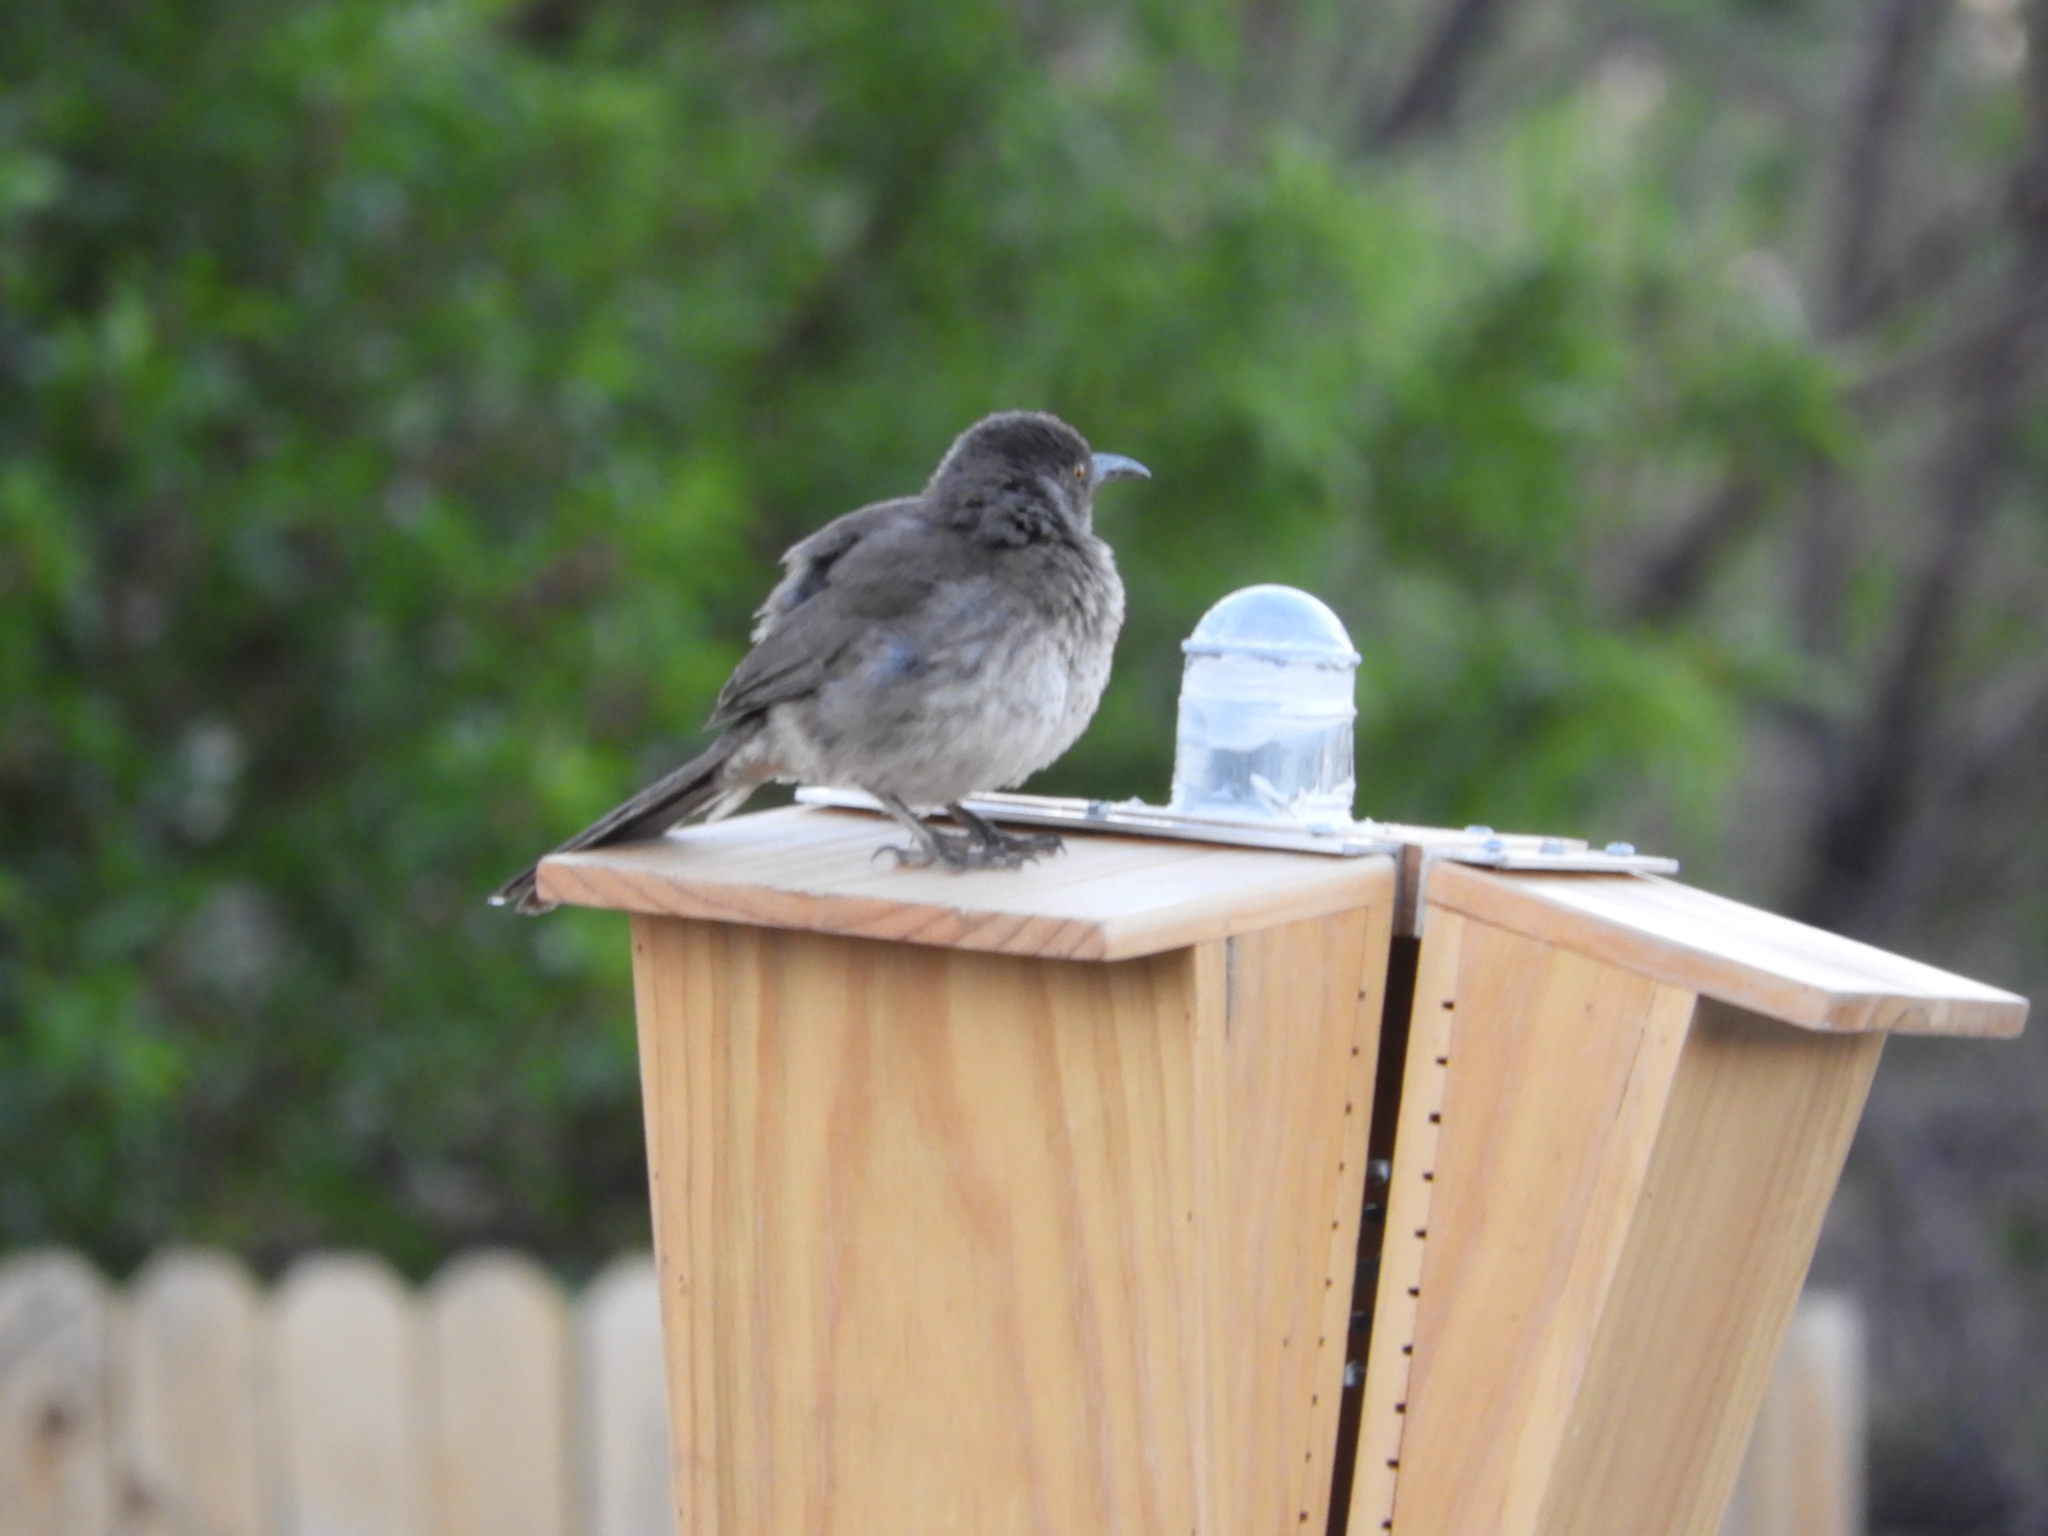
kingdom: Animalia
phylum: Chordata
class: Aves
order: Passeriformes
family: Mimidae
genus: Toxostoma
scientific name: Toxostoma curvirostre
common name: Curve-billed thrasher
